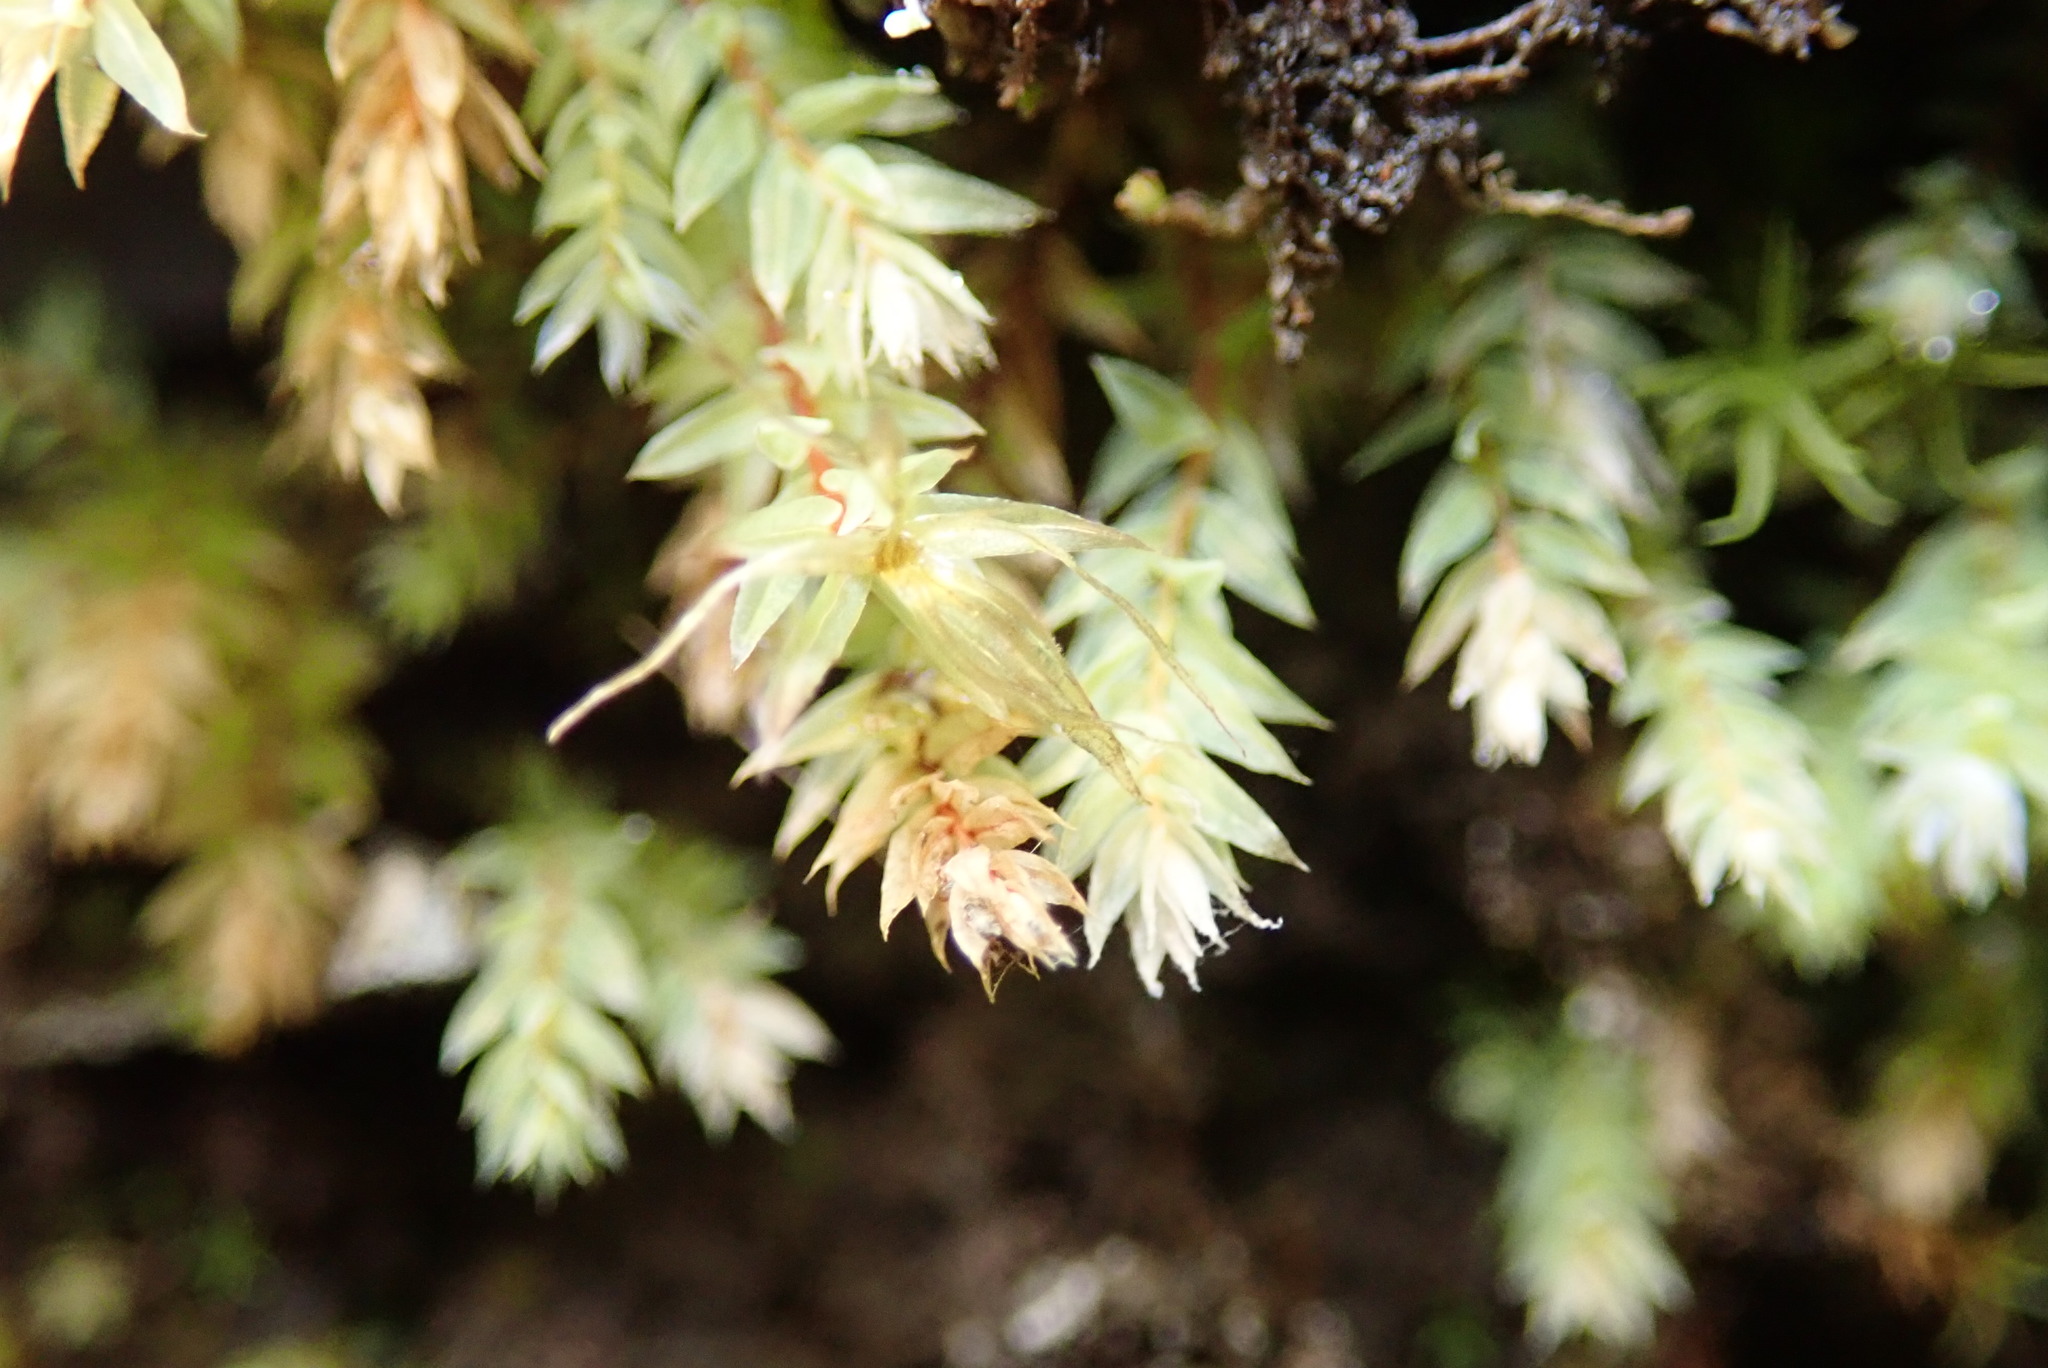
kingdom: Plantae
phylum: Bryophyta
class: Bryopsida
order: Bryales
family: Mniaceae
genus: Pohlia
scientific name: Pohlia cruda
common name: Opal nodding moss
